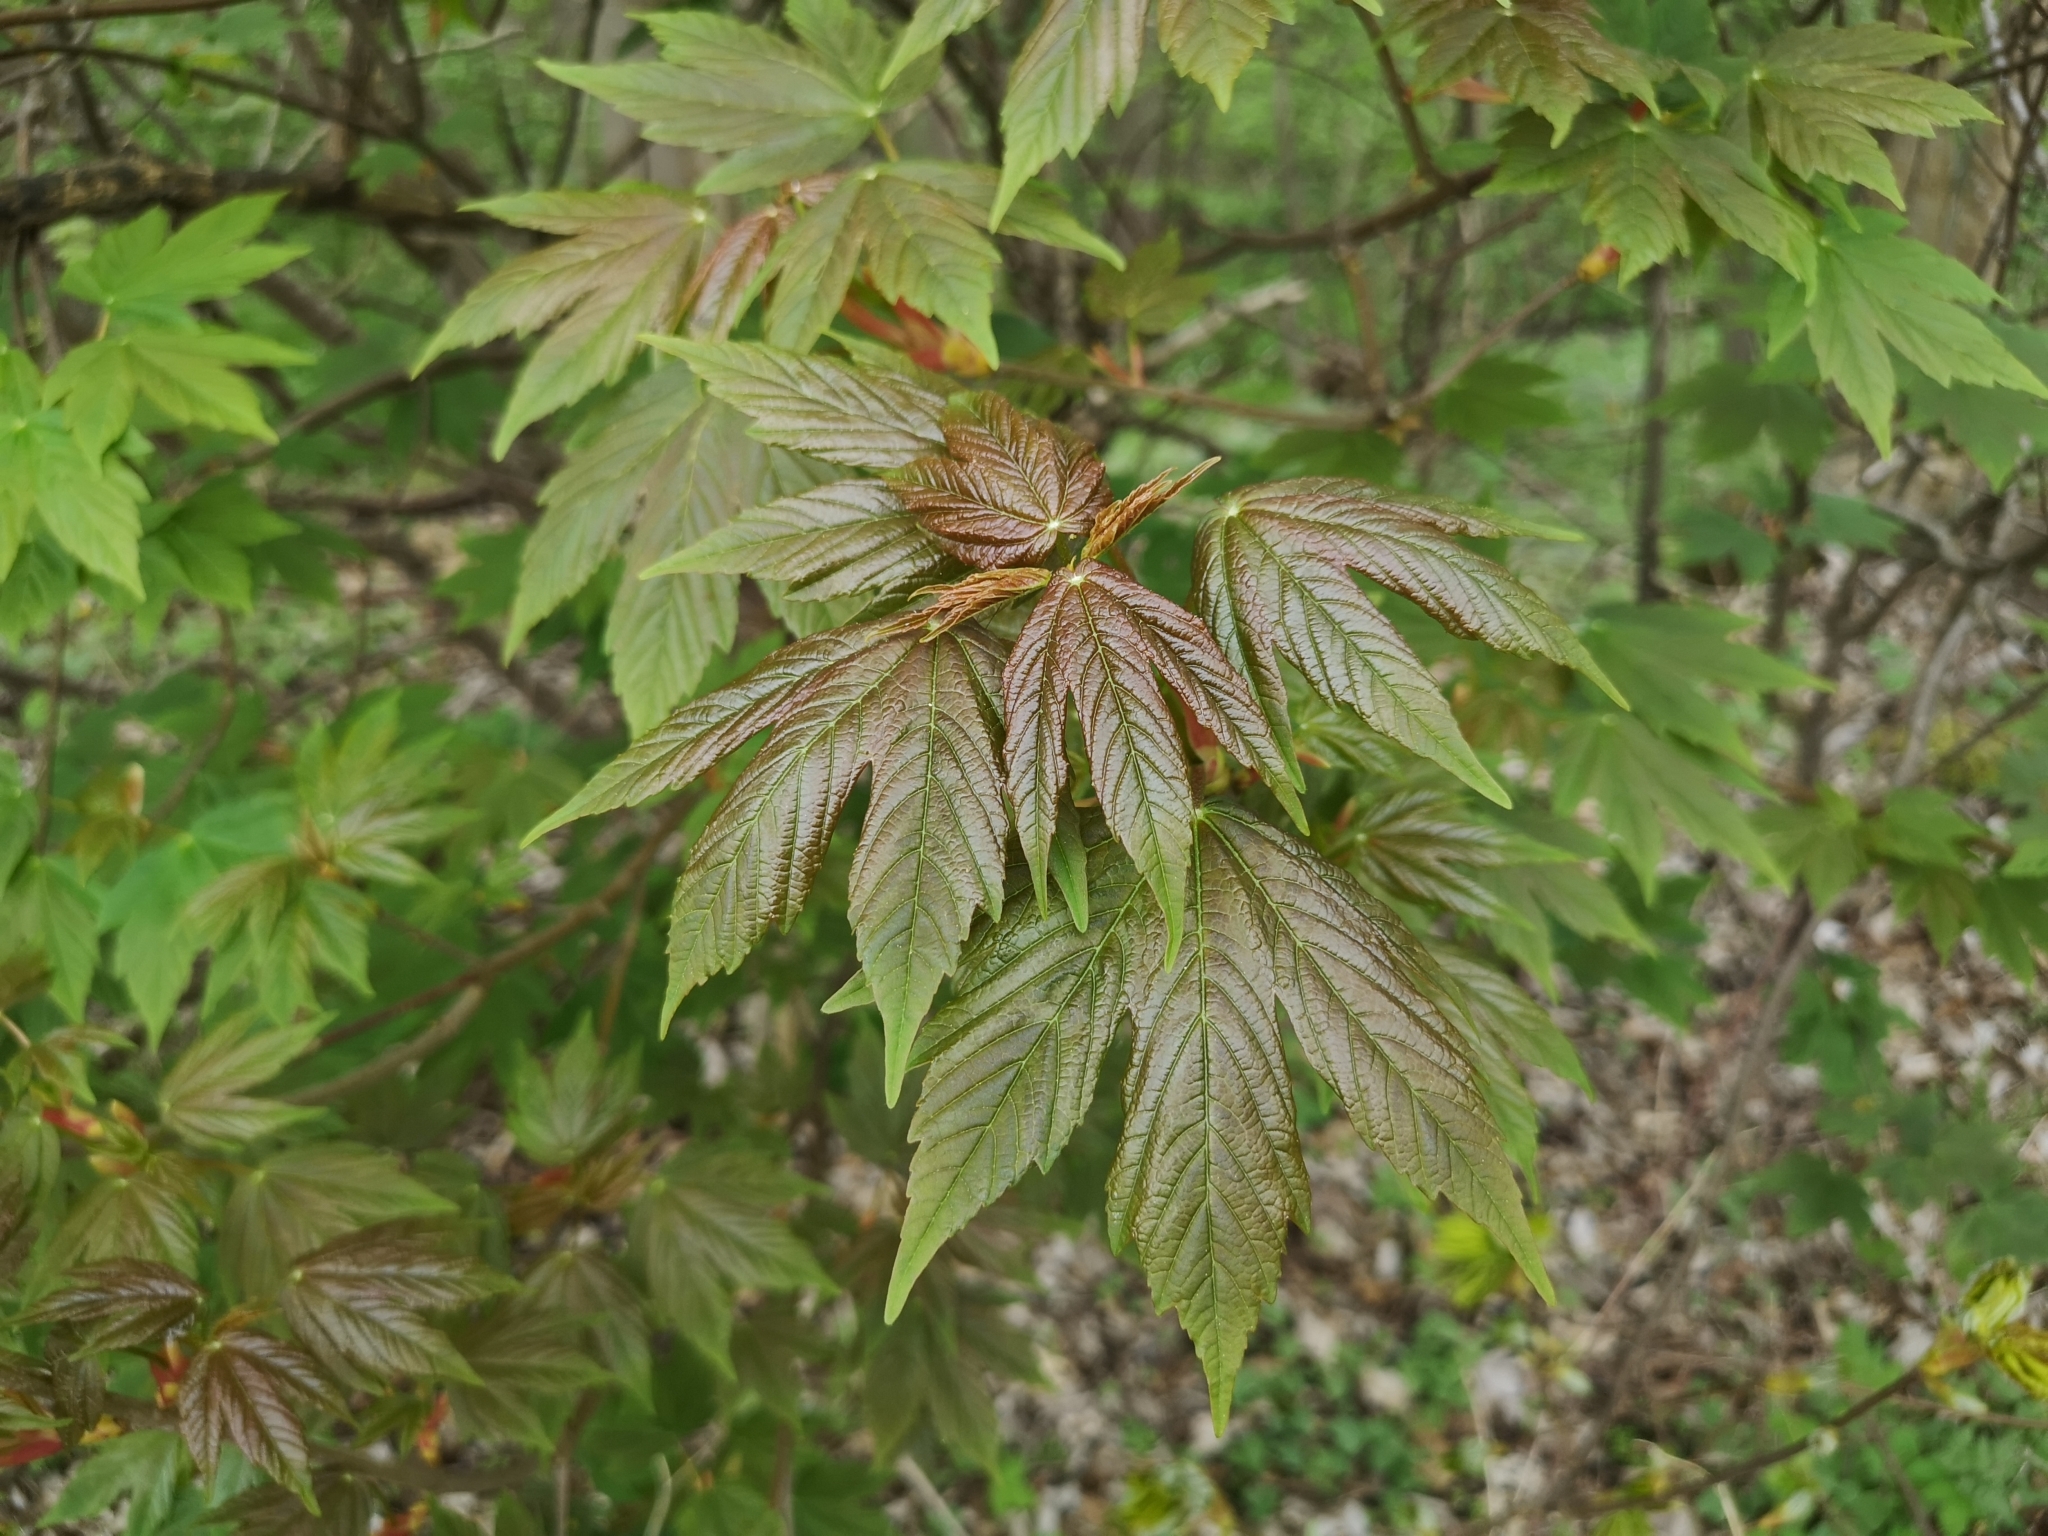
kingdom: Plantae
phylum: Tracheophyta
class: Magnoliopsida
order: Sapindales
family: Sapindaceae
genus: Acer
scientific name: Acer pseudoplatanus
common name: Sycamore
